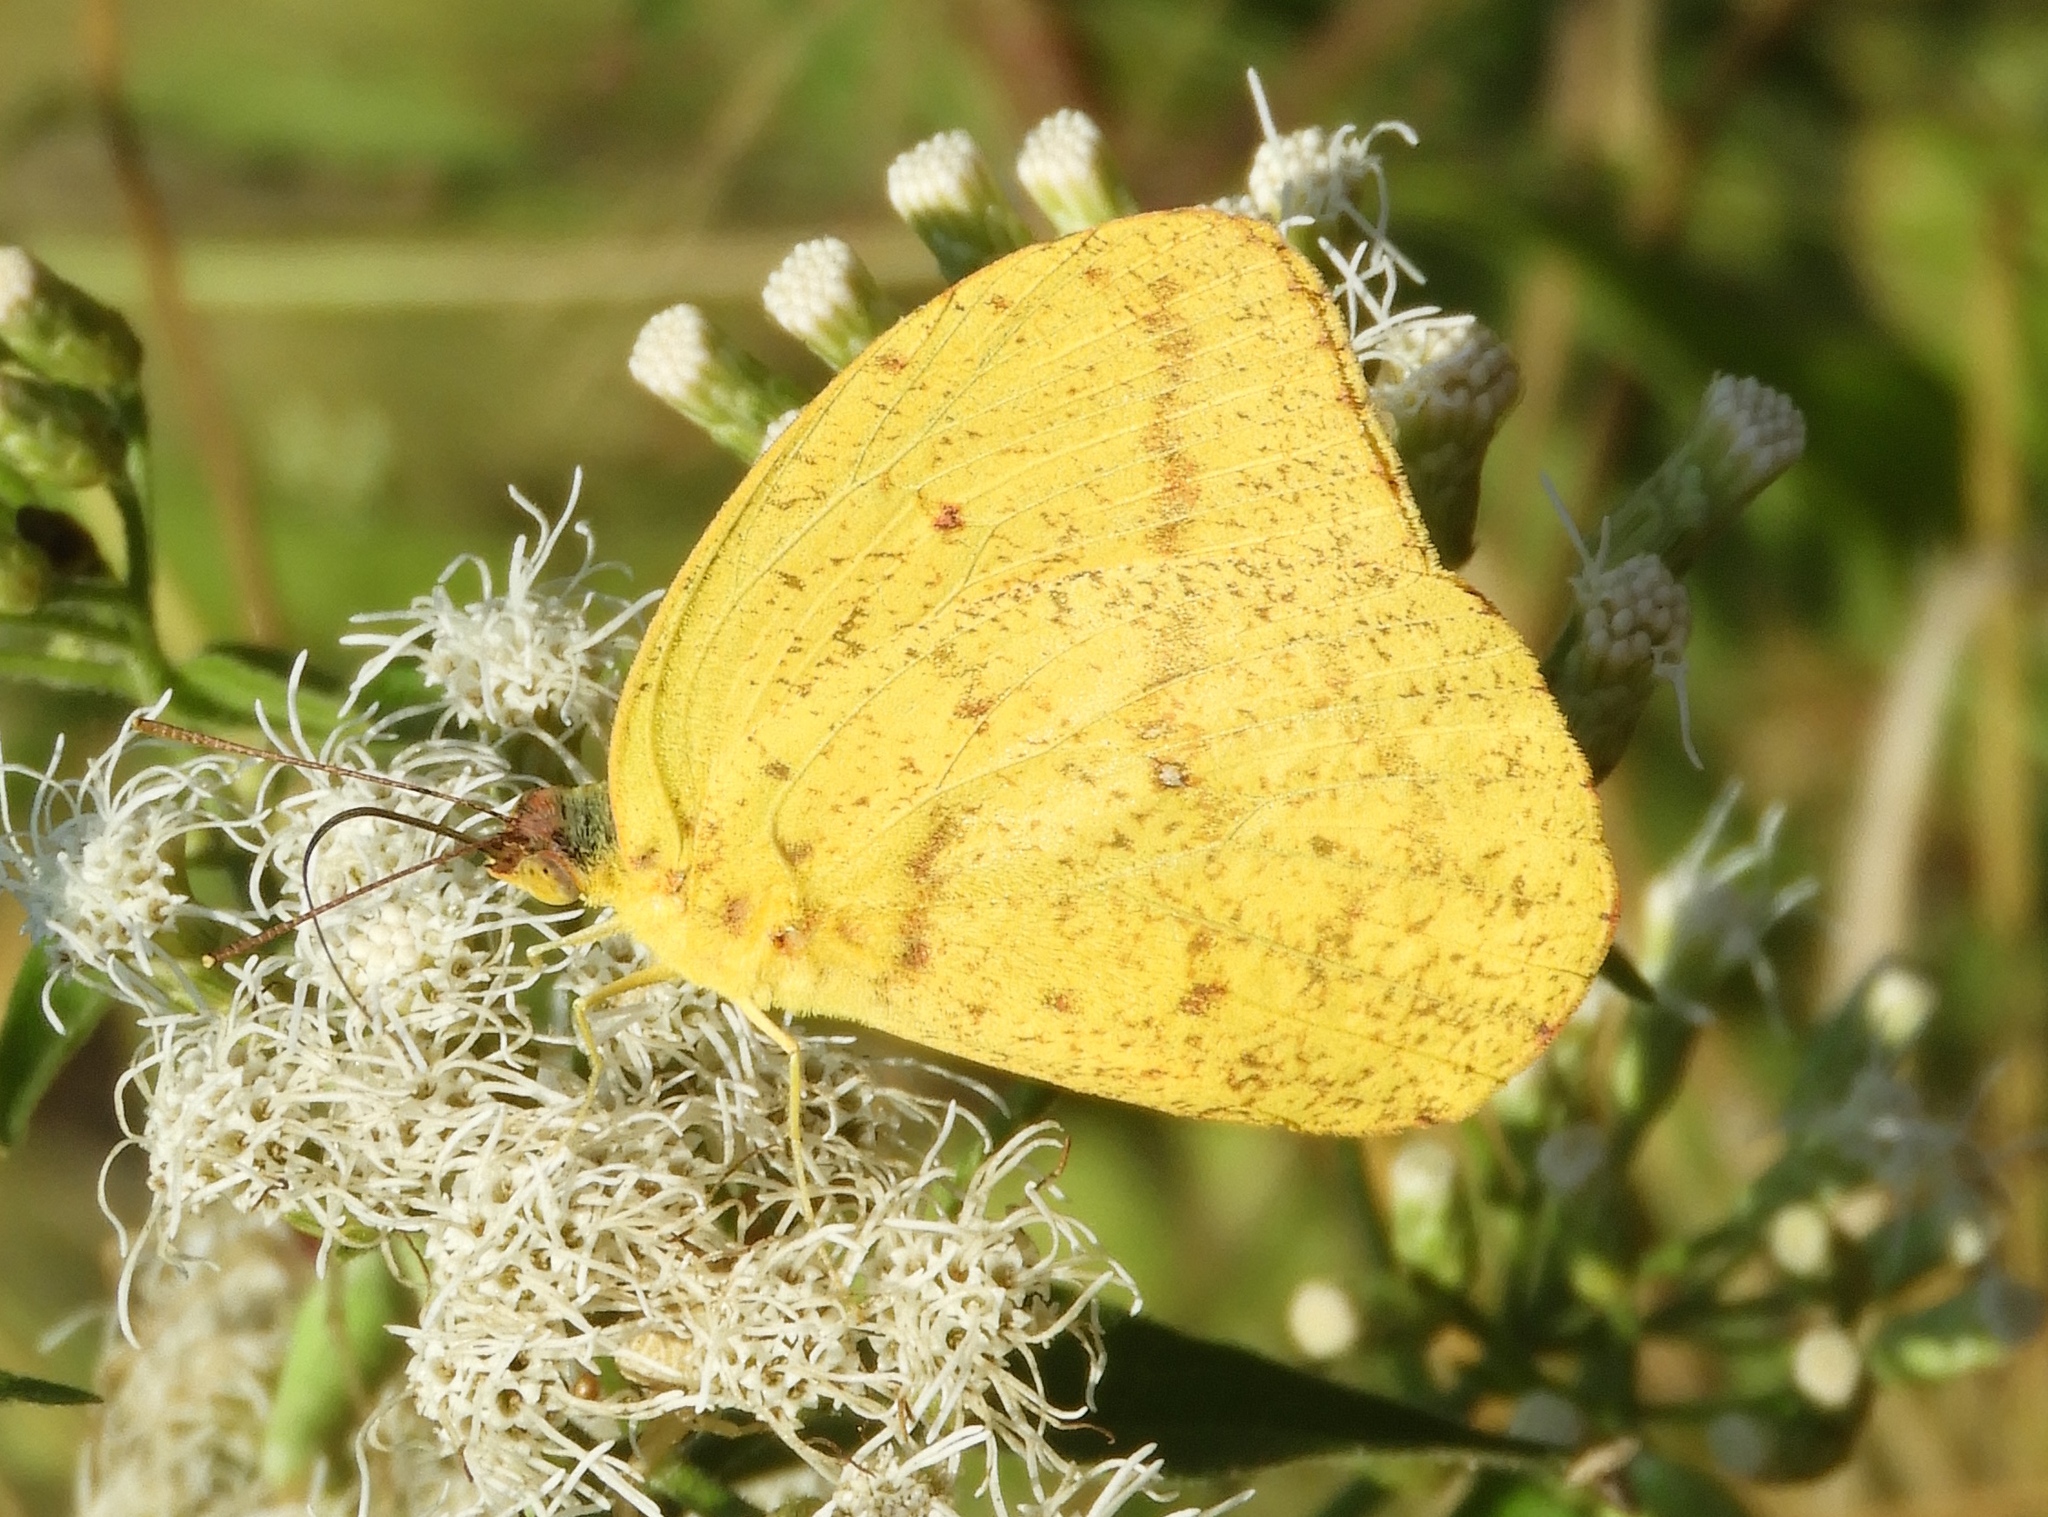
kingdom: Animalia
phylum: Arthropoda
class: Insecta
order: Lepidoptera
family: Pieridae
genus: Phoebis
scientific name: Phoebis agarithe
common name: Large orange sulphur
